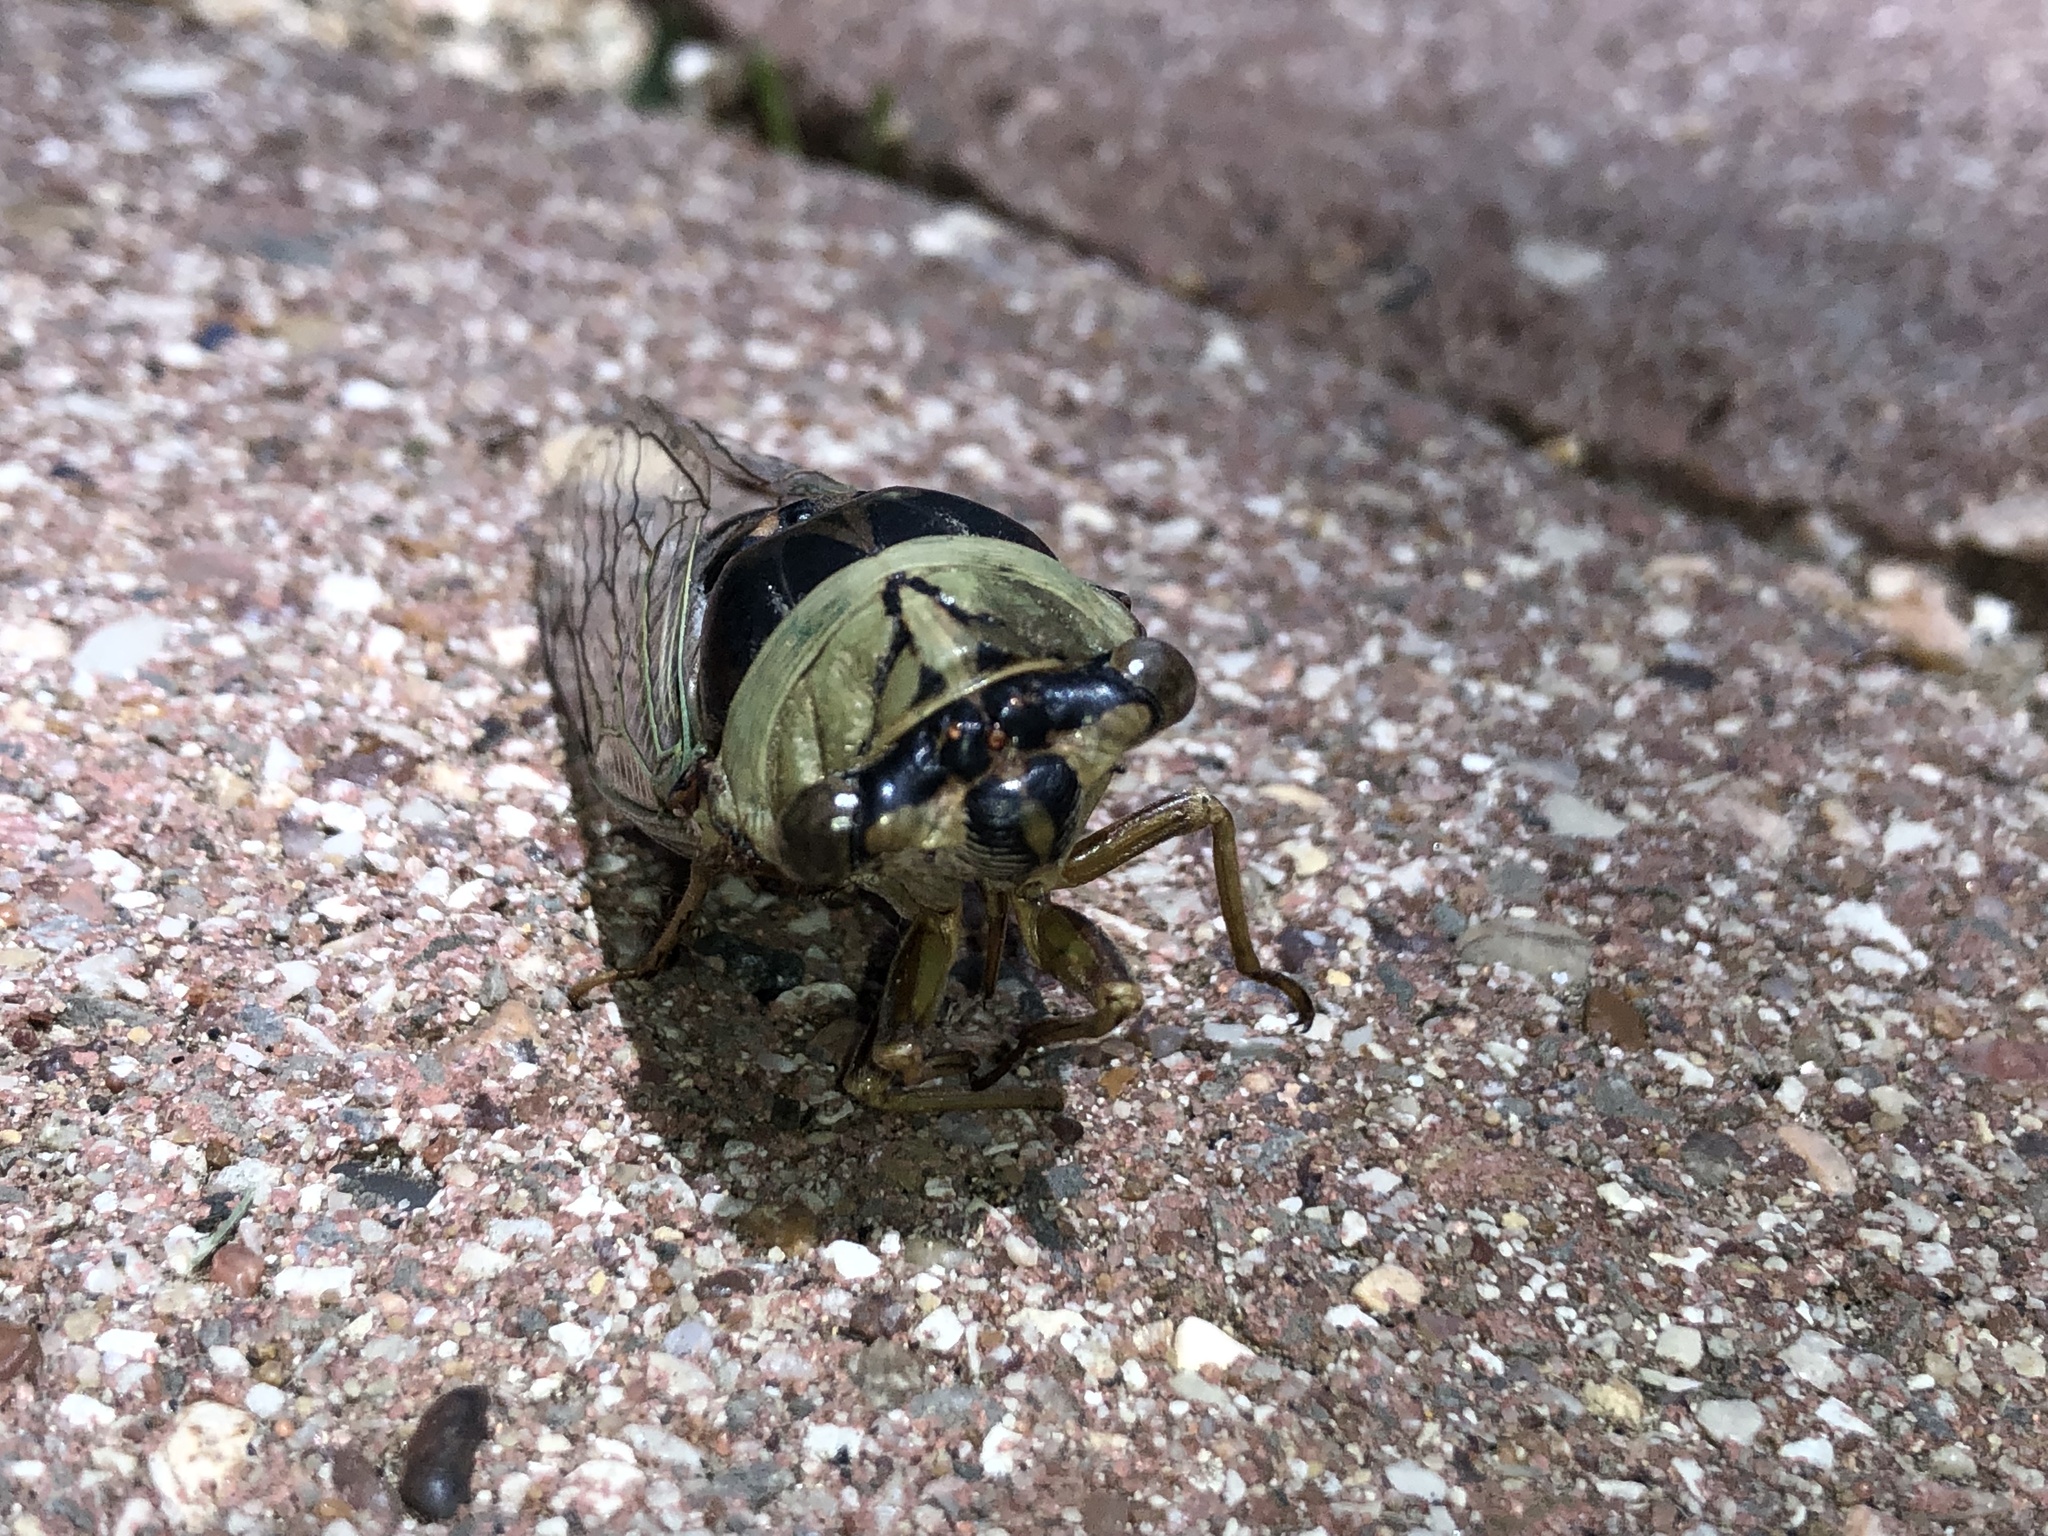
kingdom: Animalia
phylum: Arthropoda
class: Insecta
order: Hemiptera
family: Cicadidae
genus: Megatibicen
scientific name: Megatibicen resh
